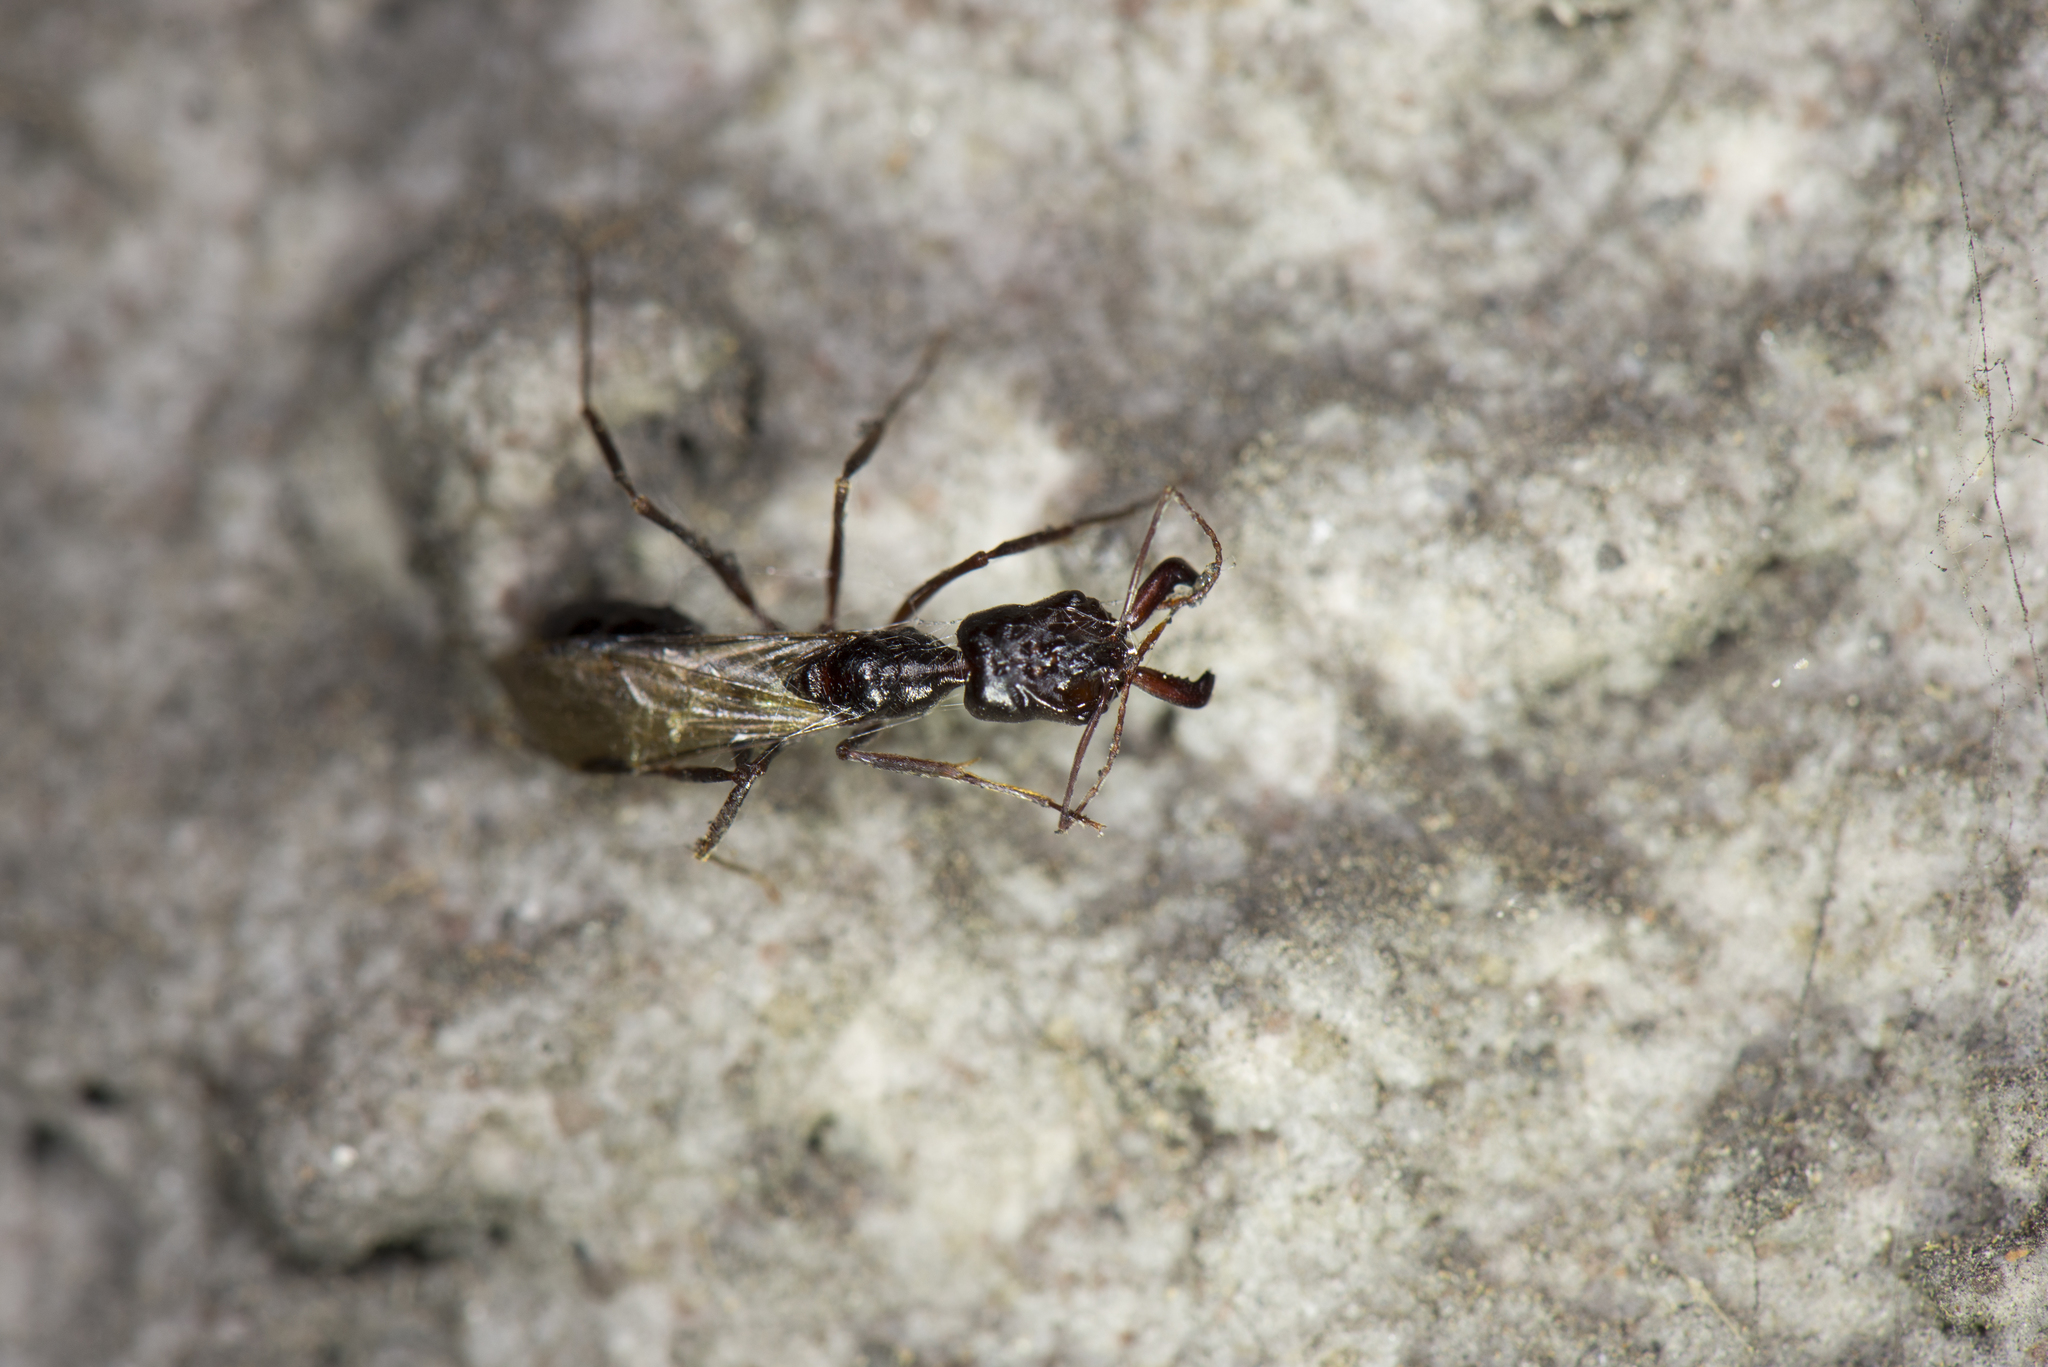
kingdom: Animalia
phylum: Arthropoda
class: Insecta
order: Hymenoptera
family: Formicidae
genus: Odontomachus
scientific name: Odontomachus monticola
